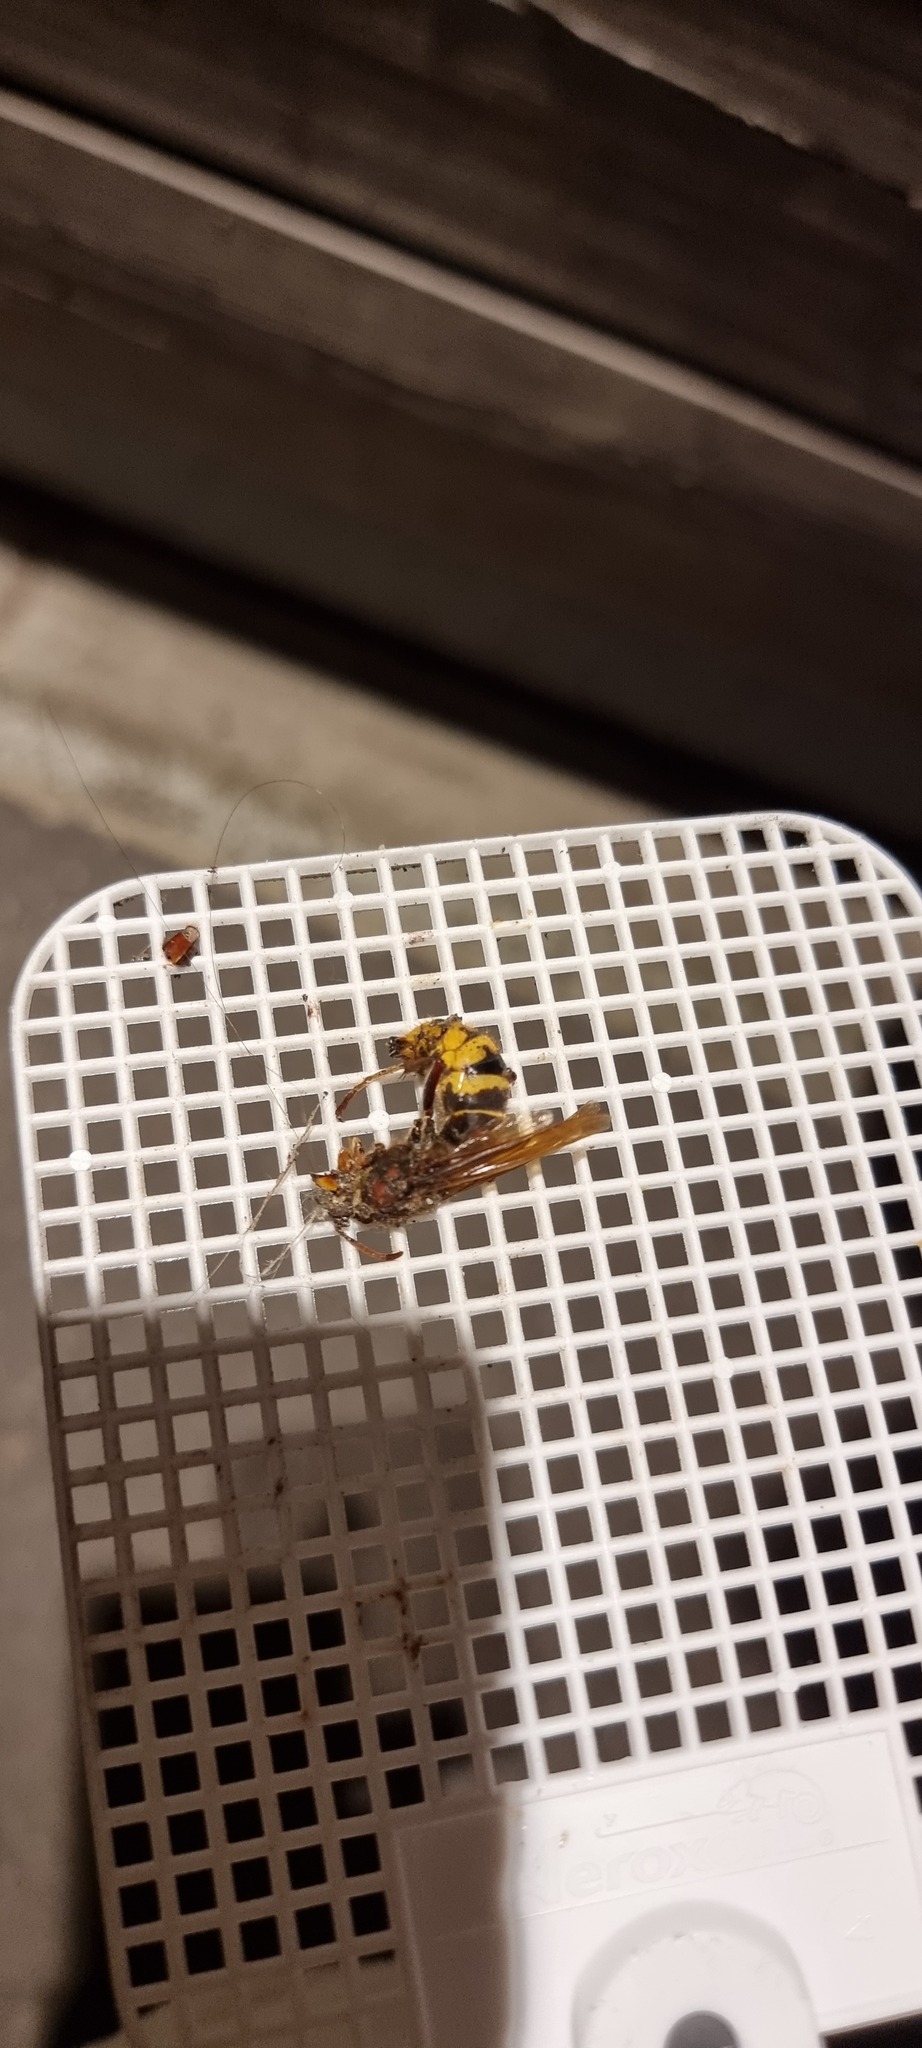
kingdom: Animalia
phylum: Arthropoda
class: Insecta
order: Hymenoptera
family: Vespidae
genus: Vespa
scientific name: Vespa velutina
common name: Asian hornet
